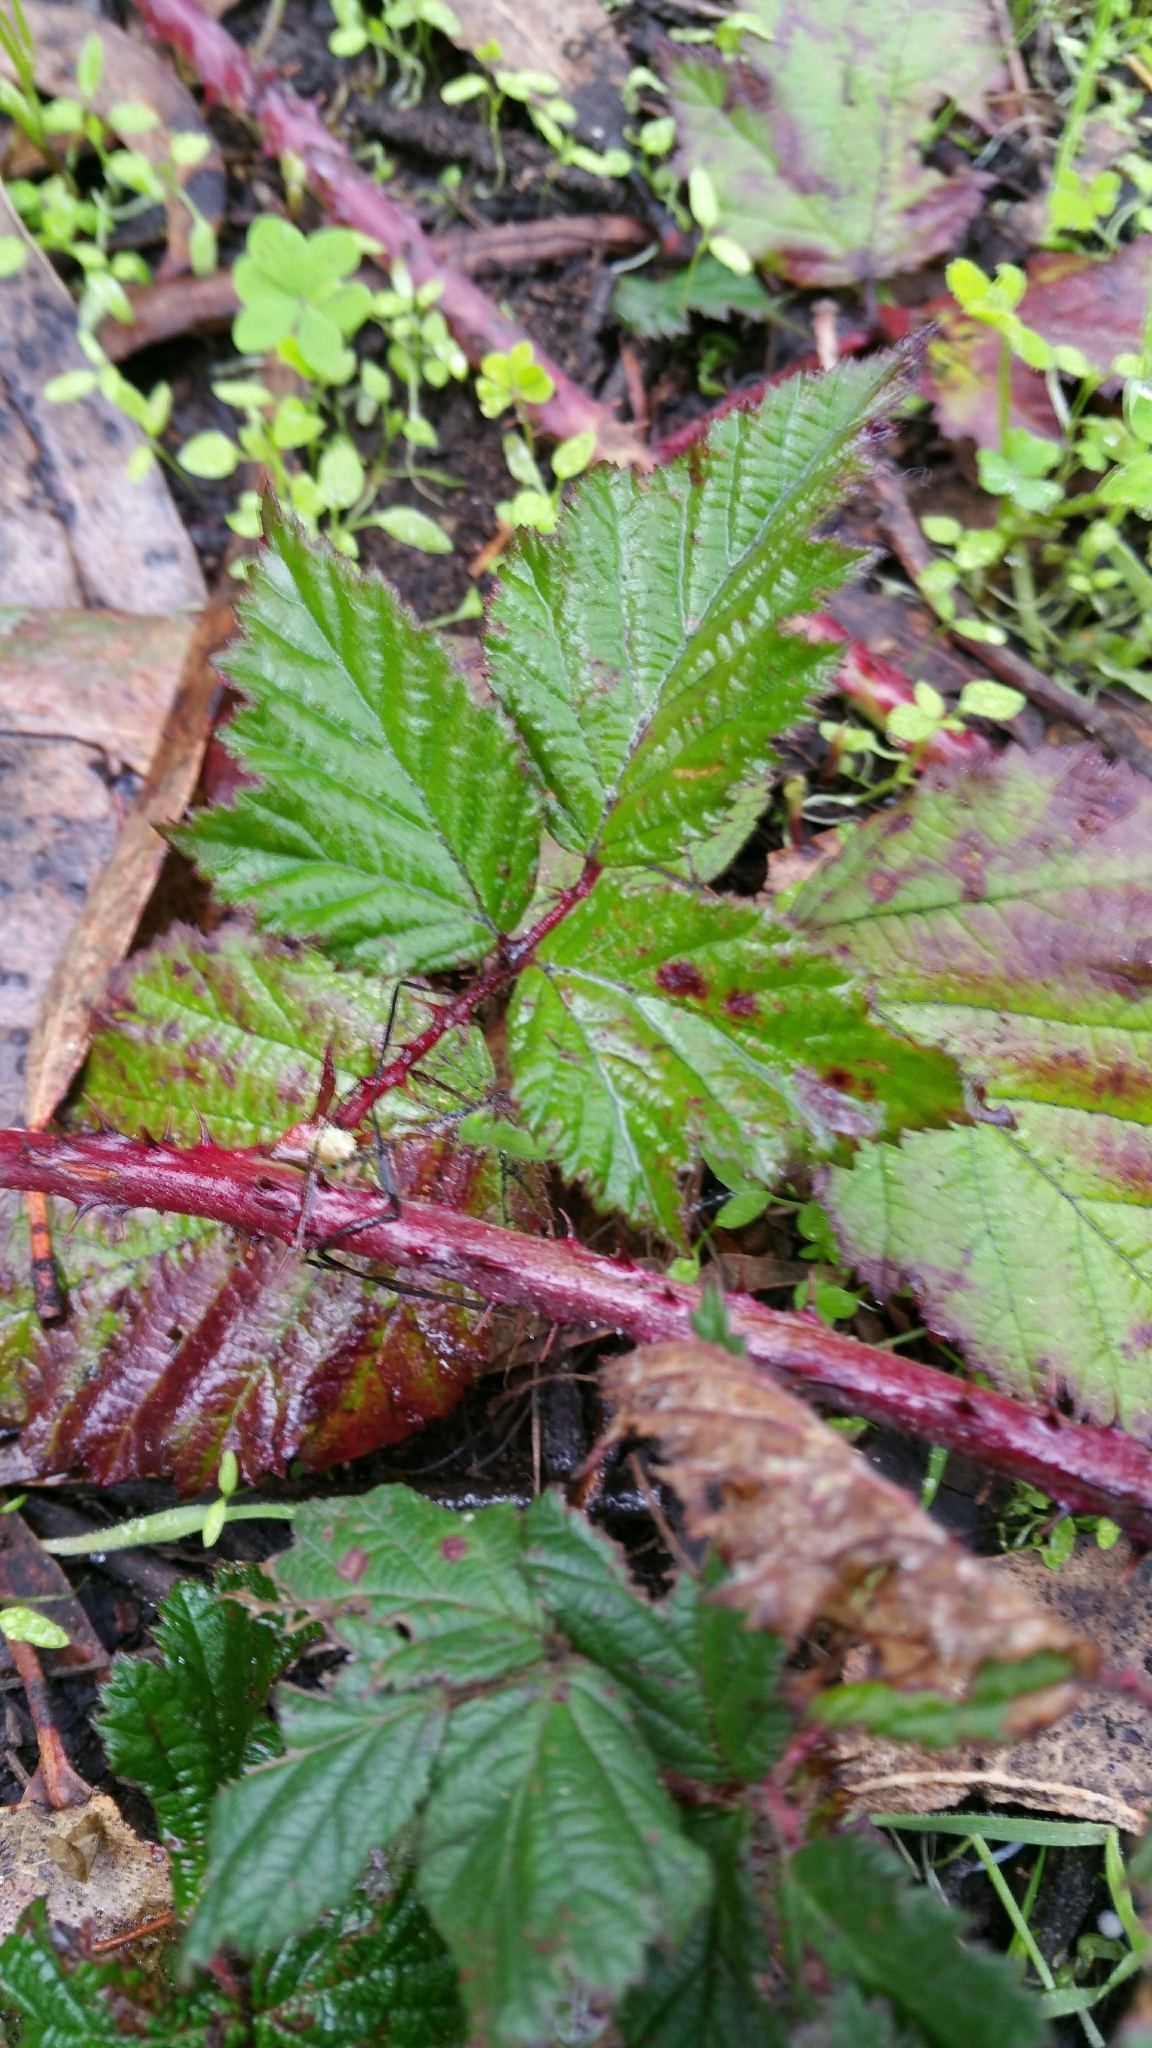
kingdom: Plantae
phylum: Tracheophyta
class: Magnoliopsida
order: Rosales
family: Rosaceae
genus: Rubus
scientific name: Rubus ursinus
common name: Pacific blackberry
